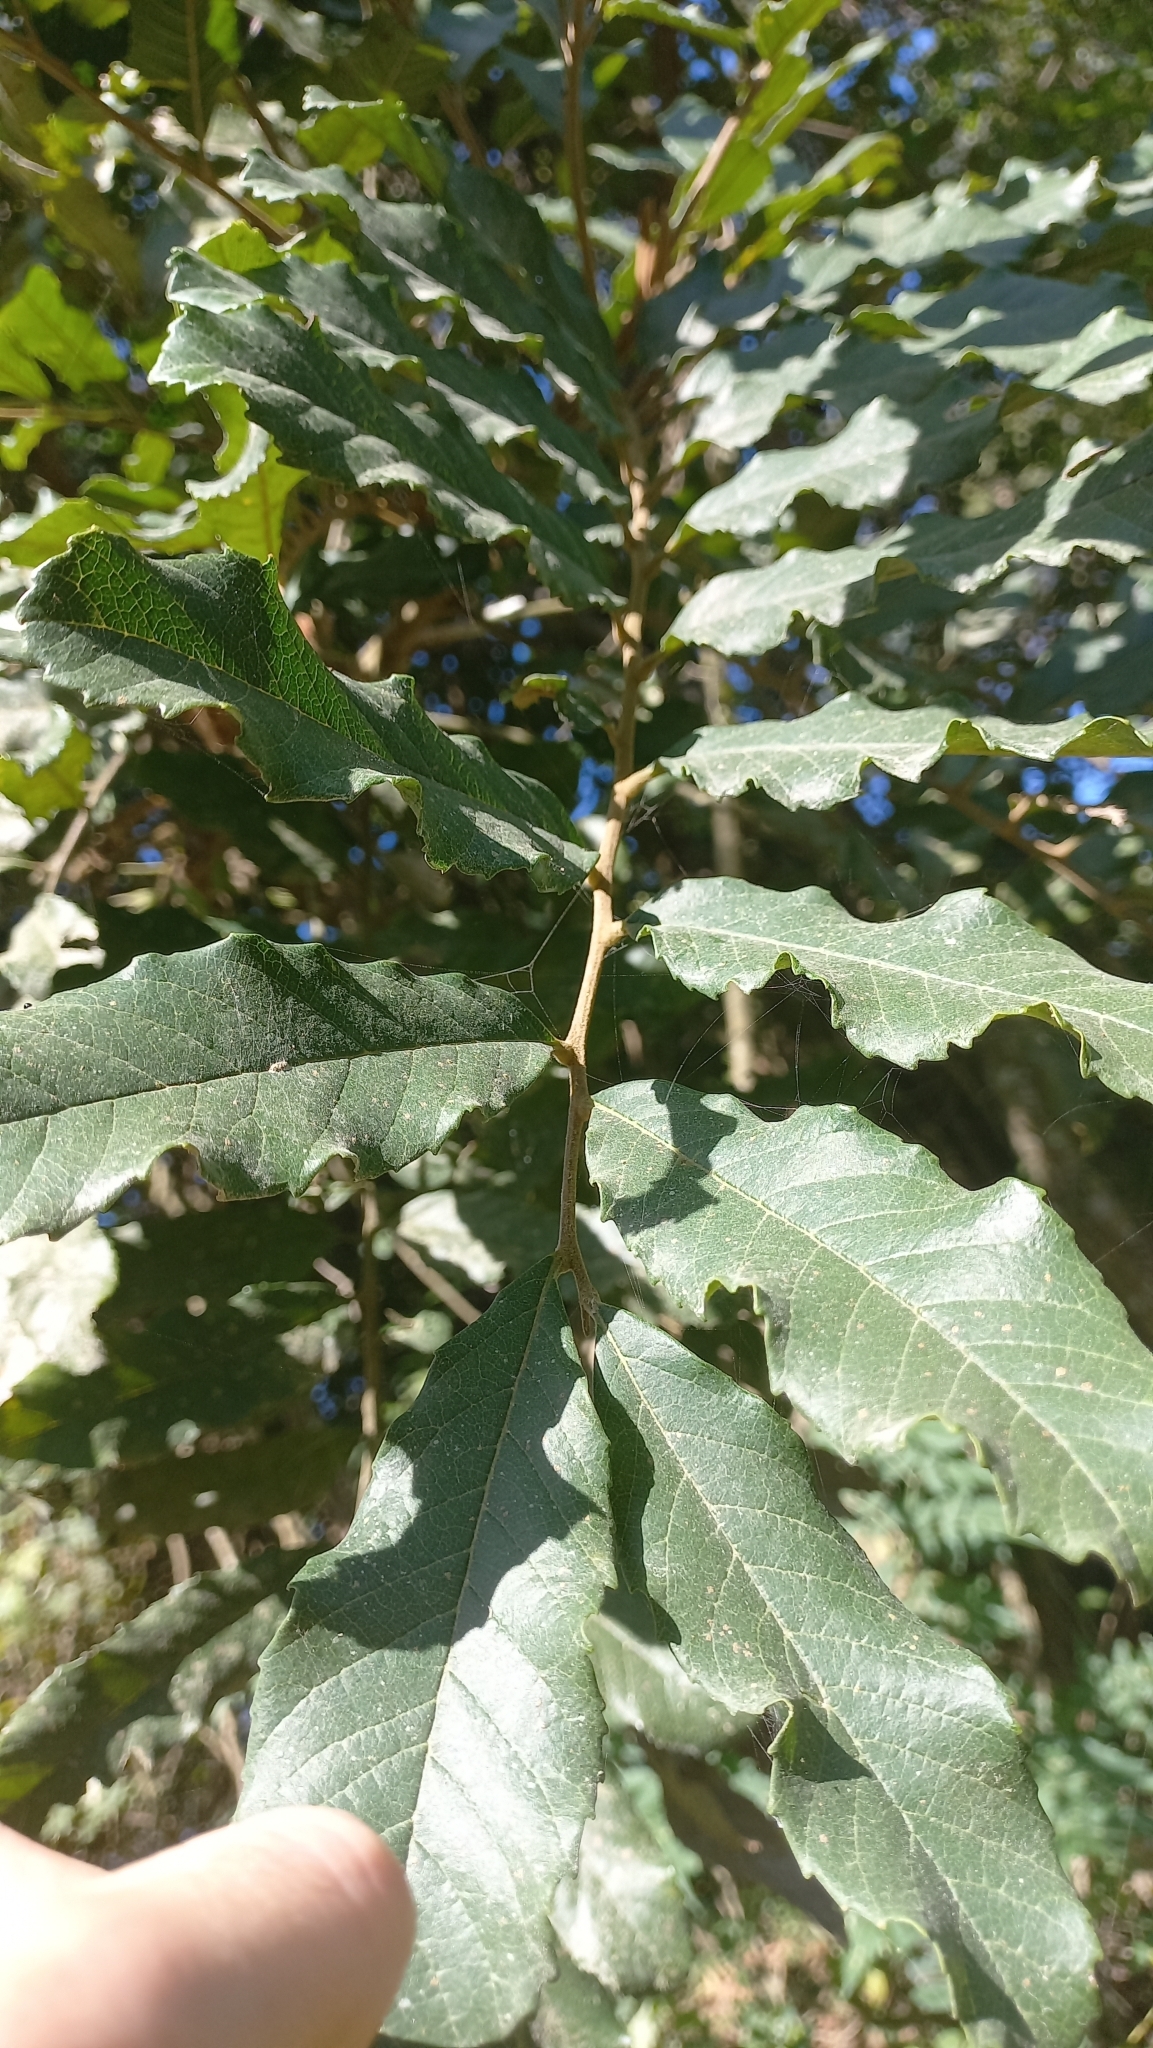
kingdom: Plantae
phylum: Tracheophyta
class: Magnoliopsida
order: Sapindales
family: Sapindaceae
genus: Cupania
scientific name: Cupania vernalis
